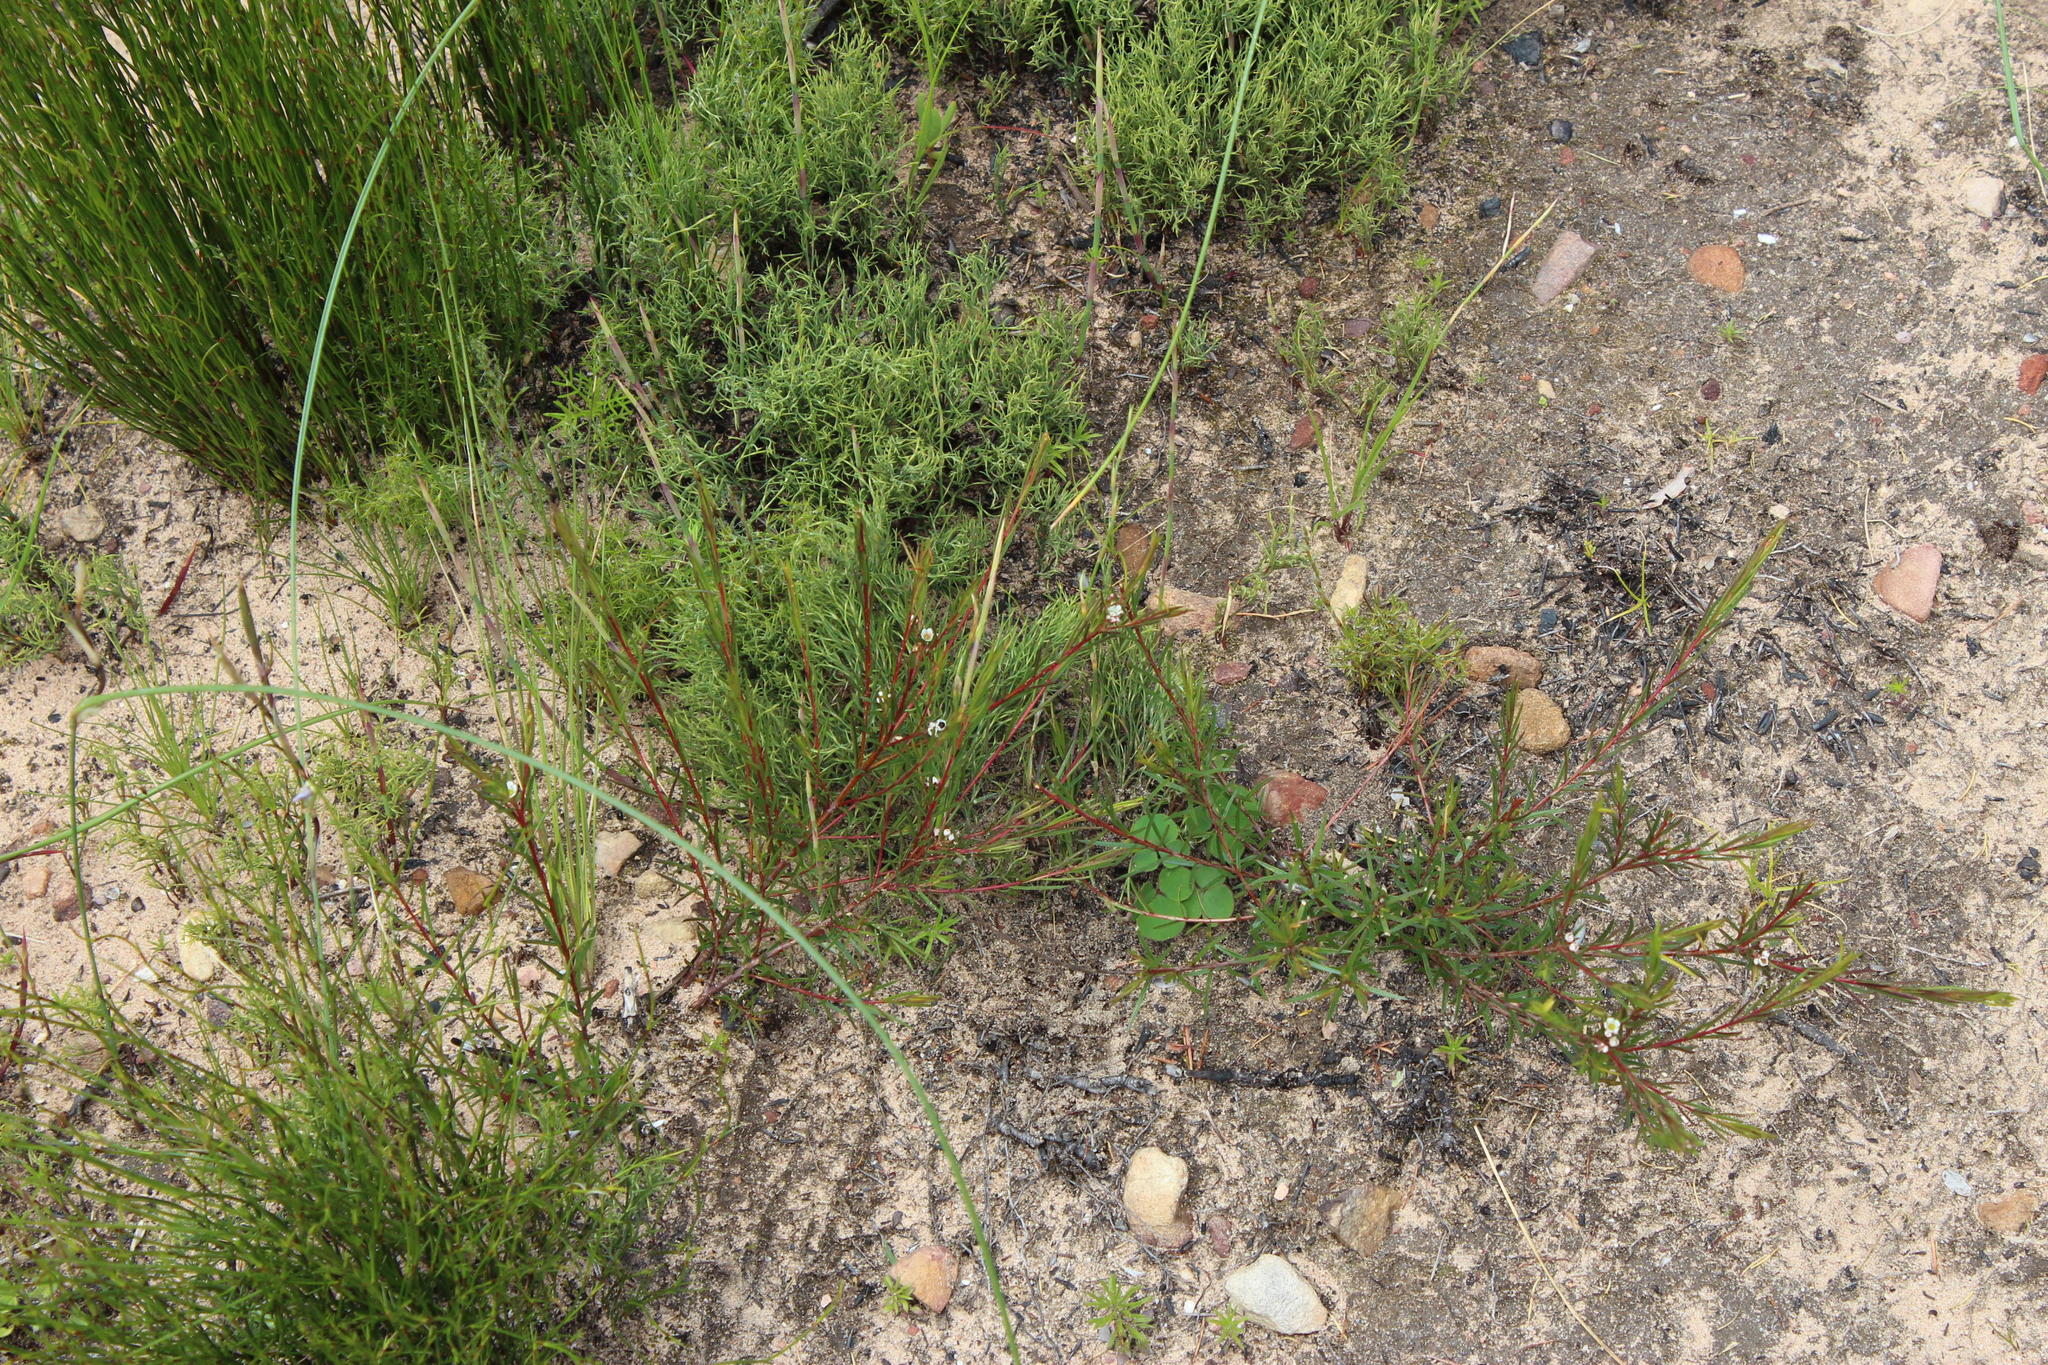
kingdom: Plantae
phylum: Tracheophyta
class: Magnoliopsida
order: Sapindales
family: Rutaceae
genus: Diosma
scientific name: Diosma hirsuta
